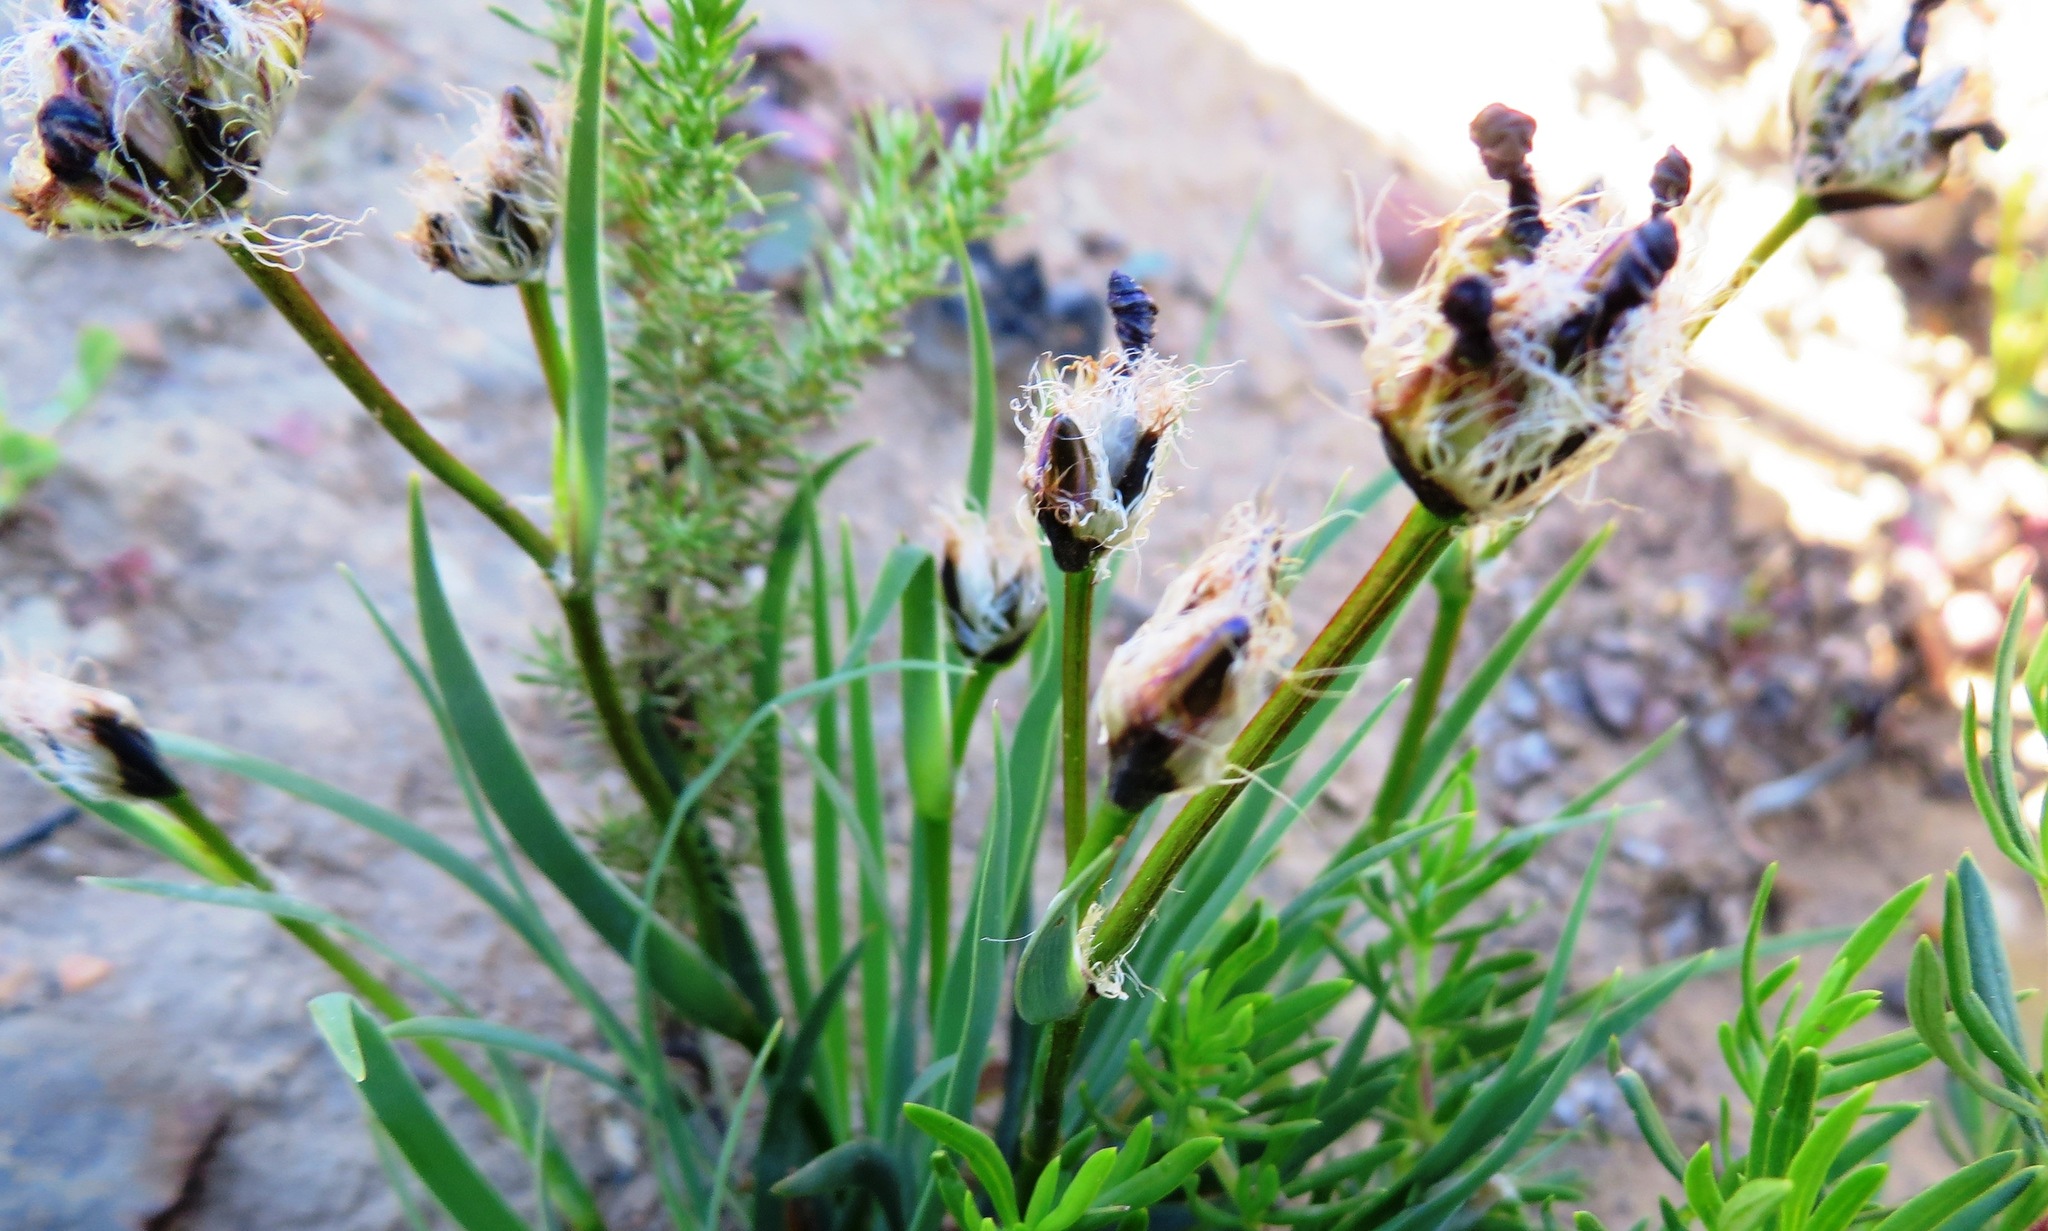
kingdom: Plantae
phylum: Tracheophyta
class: Liliopsida
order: Asparagales
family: Iridaceae
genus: Aristea
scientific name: Aristea africana
